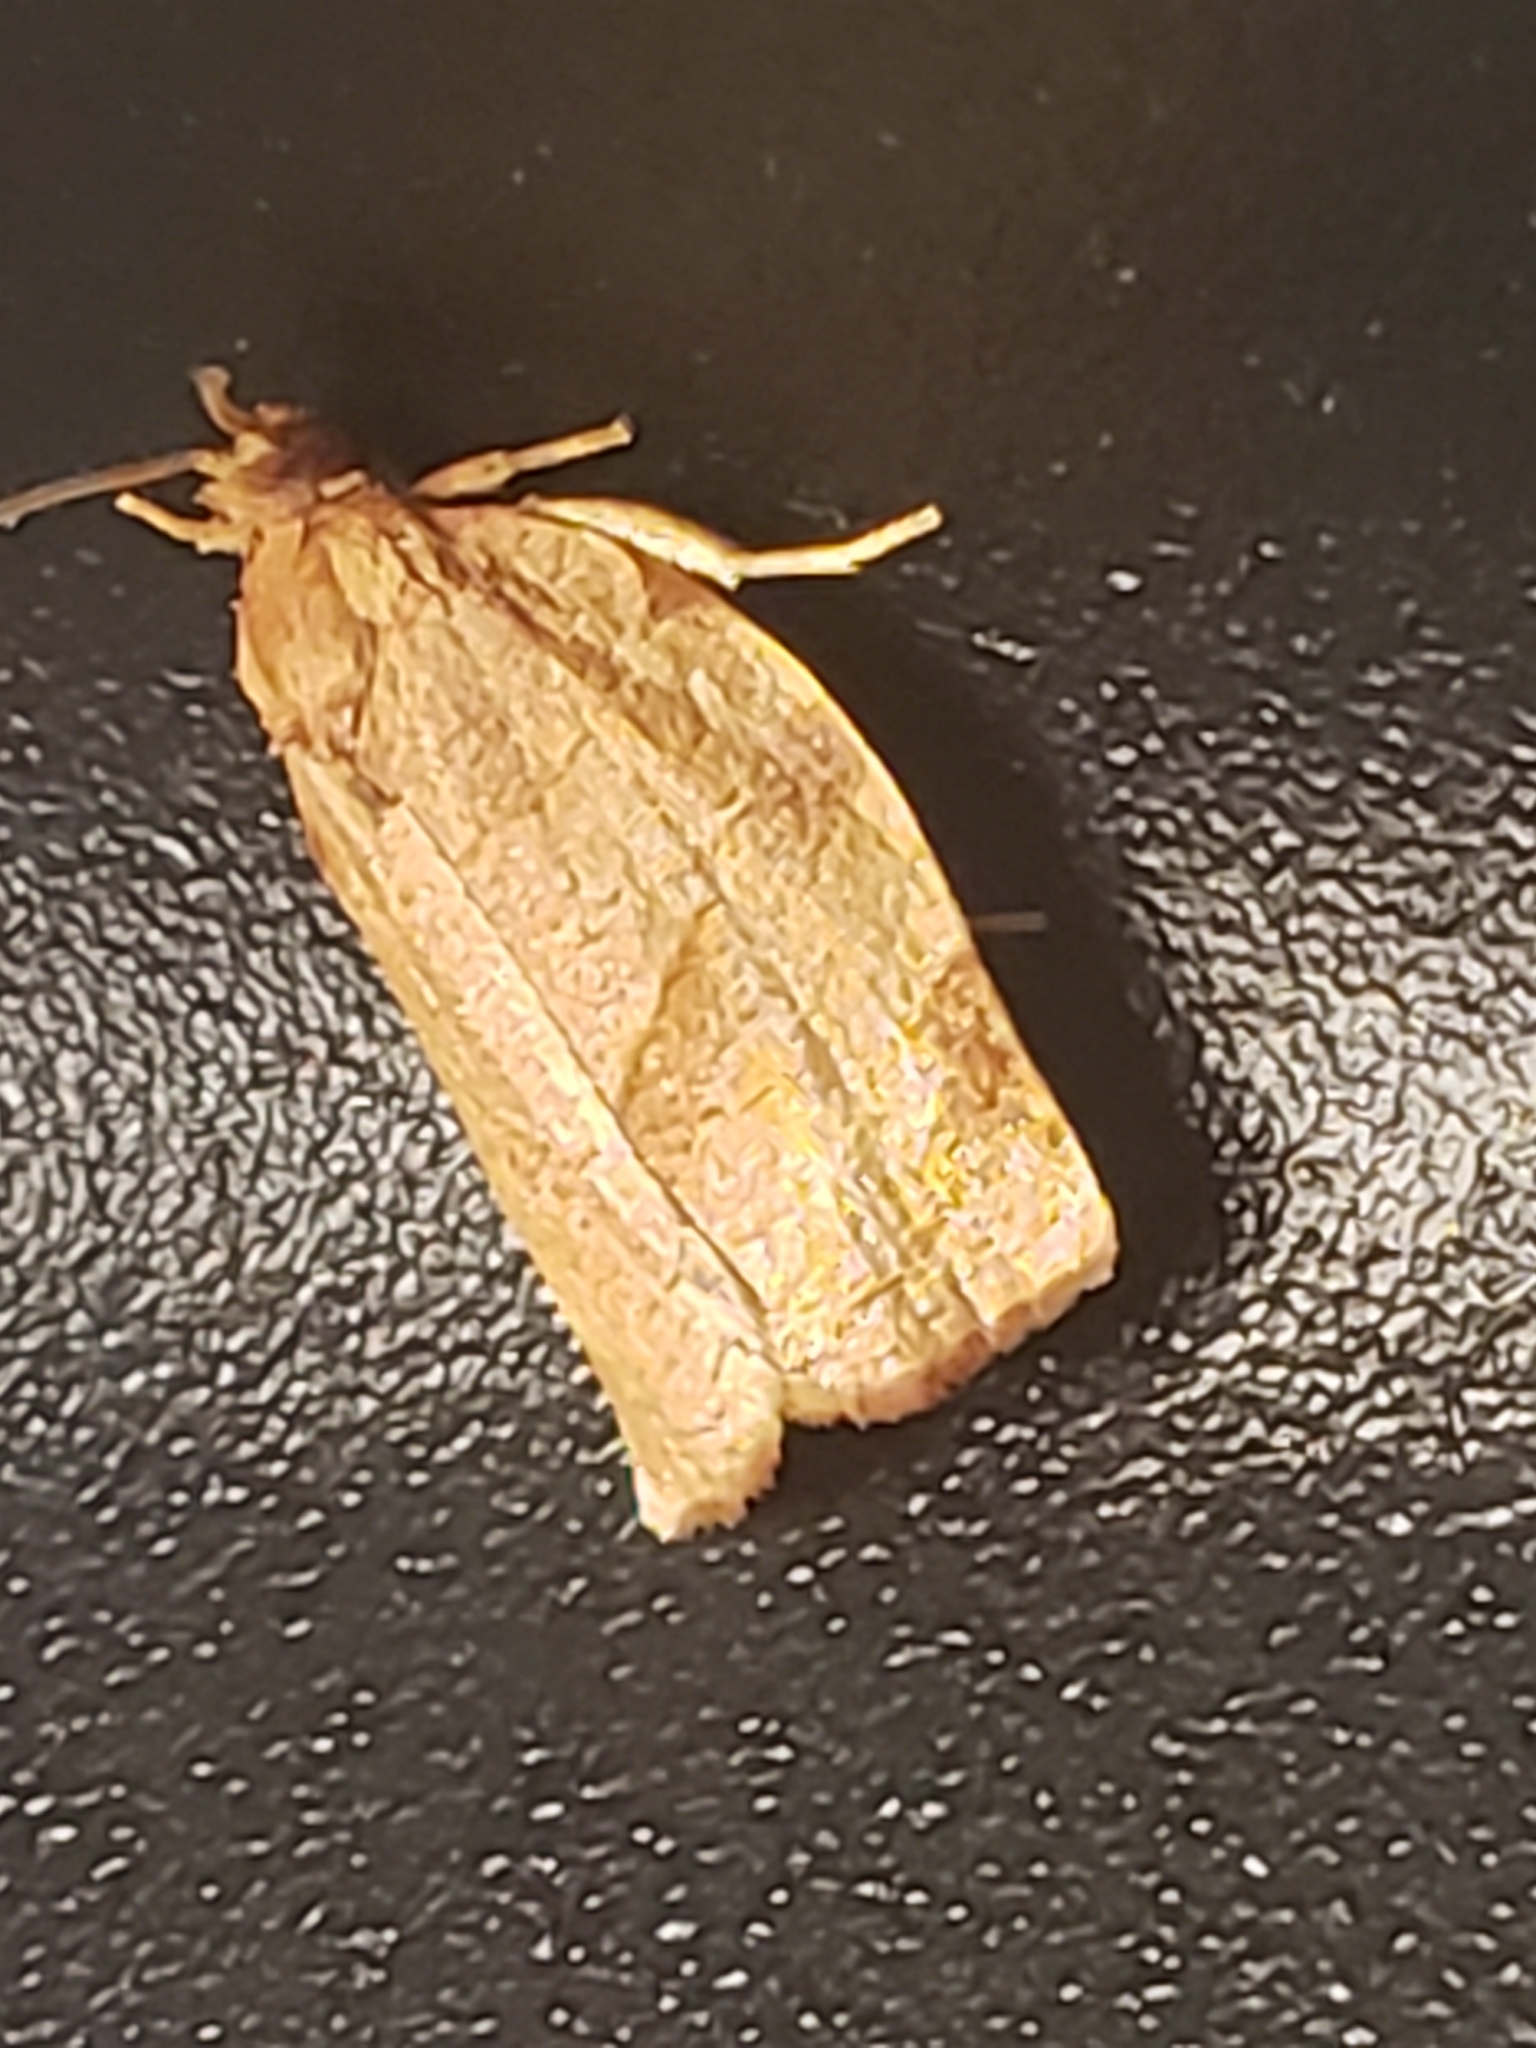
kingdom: Animalia
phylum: Arthropoda
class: Insecta
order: Lepidoptera
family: Tortricidae
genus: Choristoneura
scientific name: Choristoneura rosaceana
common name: Oblique-banded leafroller moth
